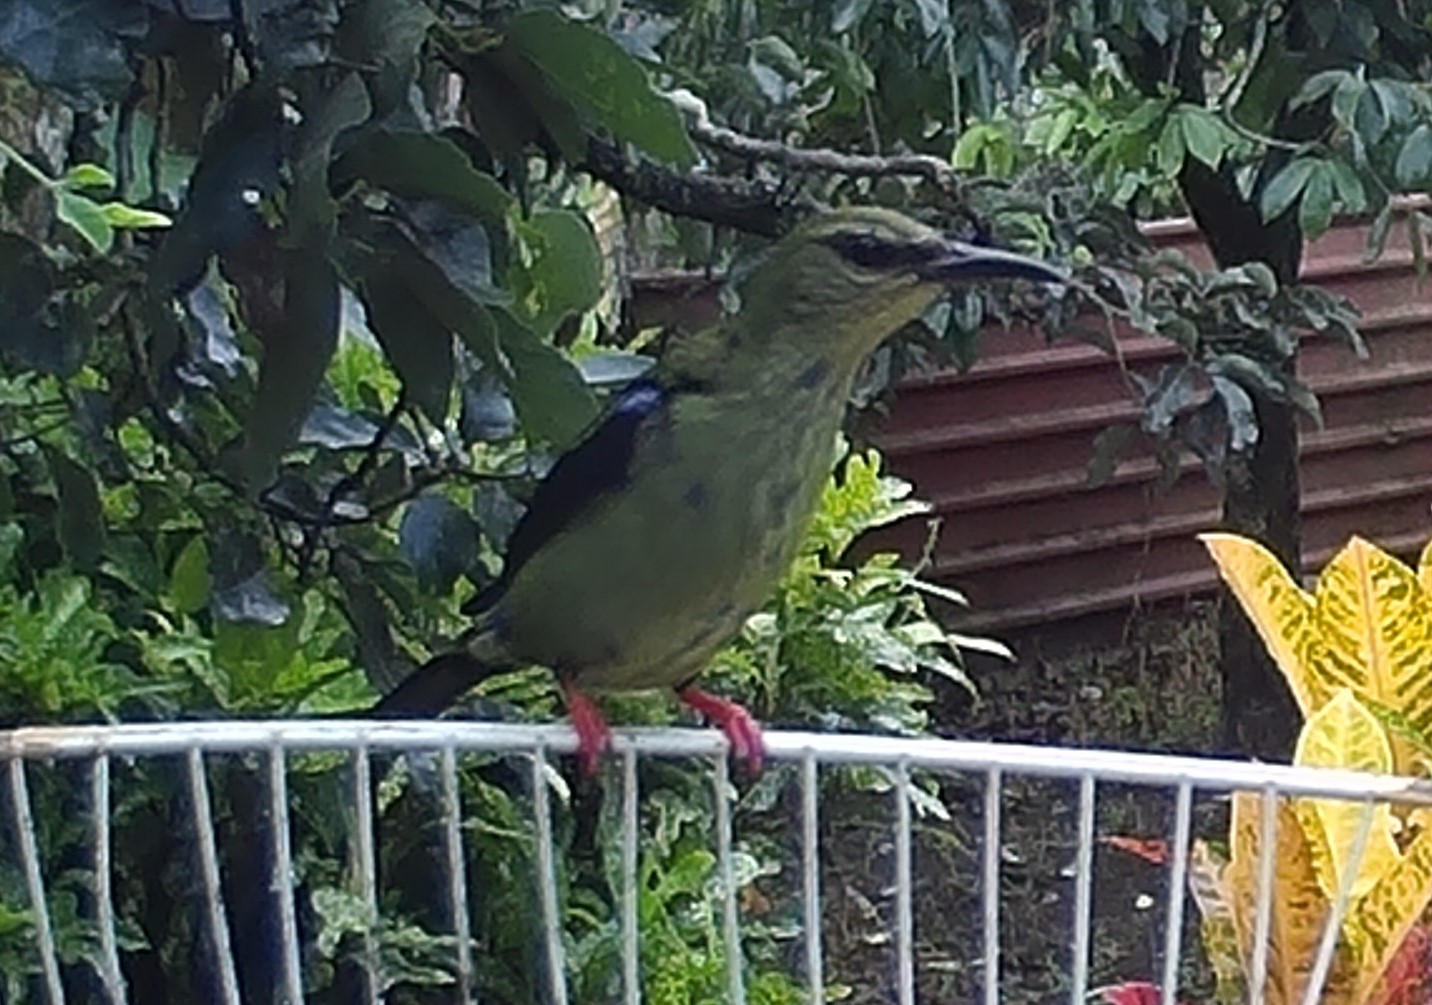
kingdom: Animalia
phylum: Chordata
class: Aves
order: Passeriformes
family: Thraupidae
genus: Cyanerpes
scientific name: Cyanerpes cyaneus
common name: Red-legged honeycreeper
